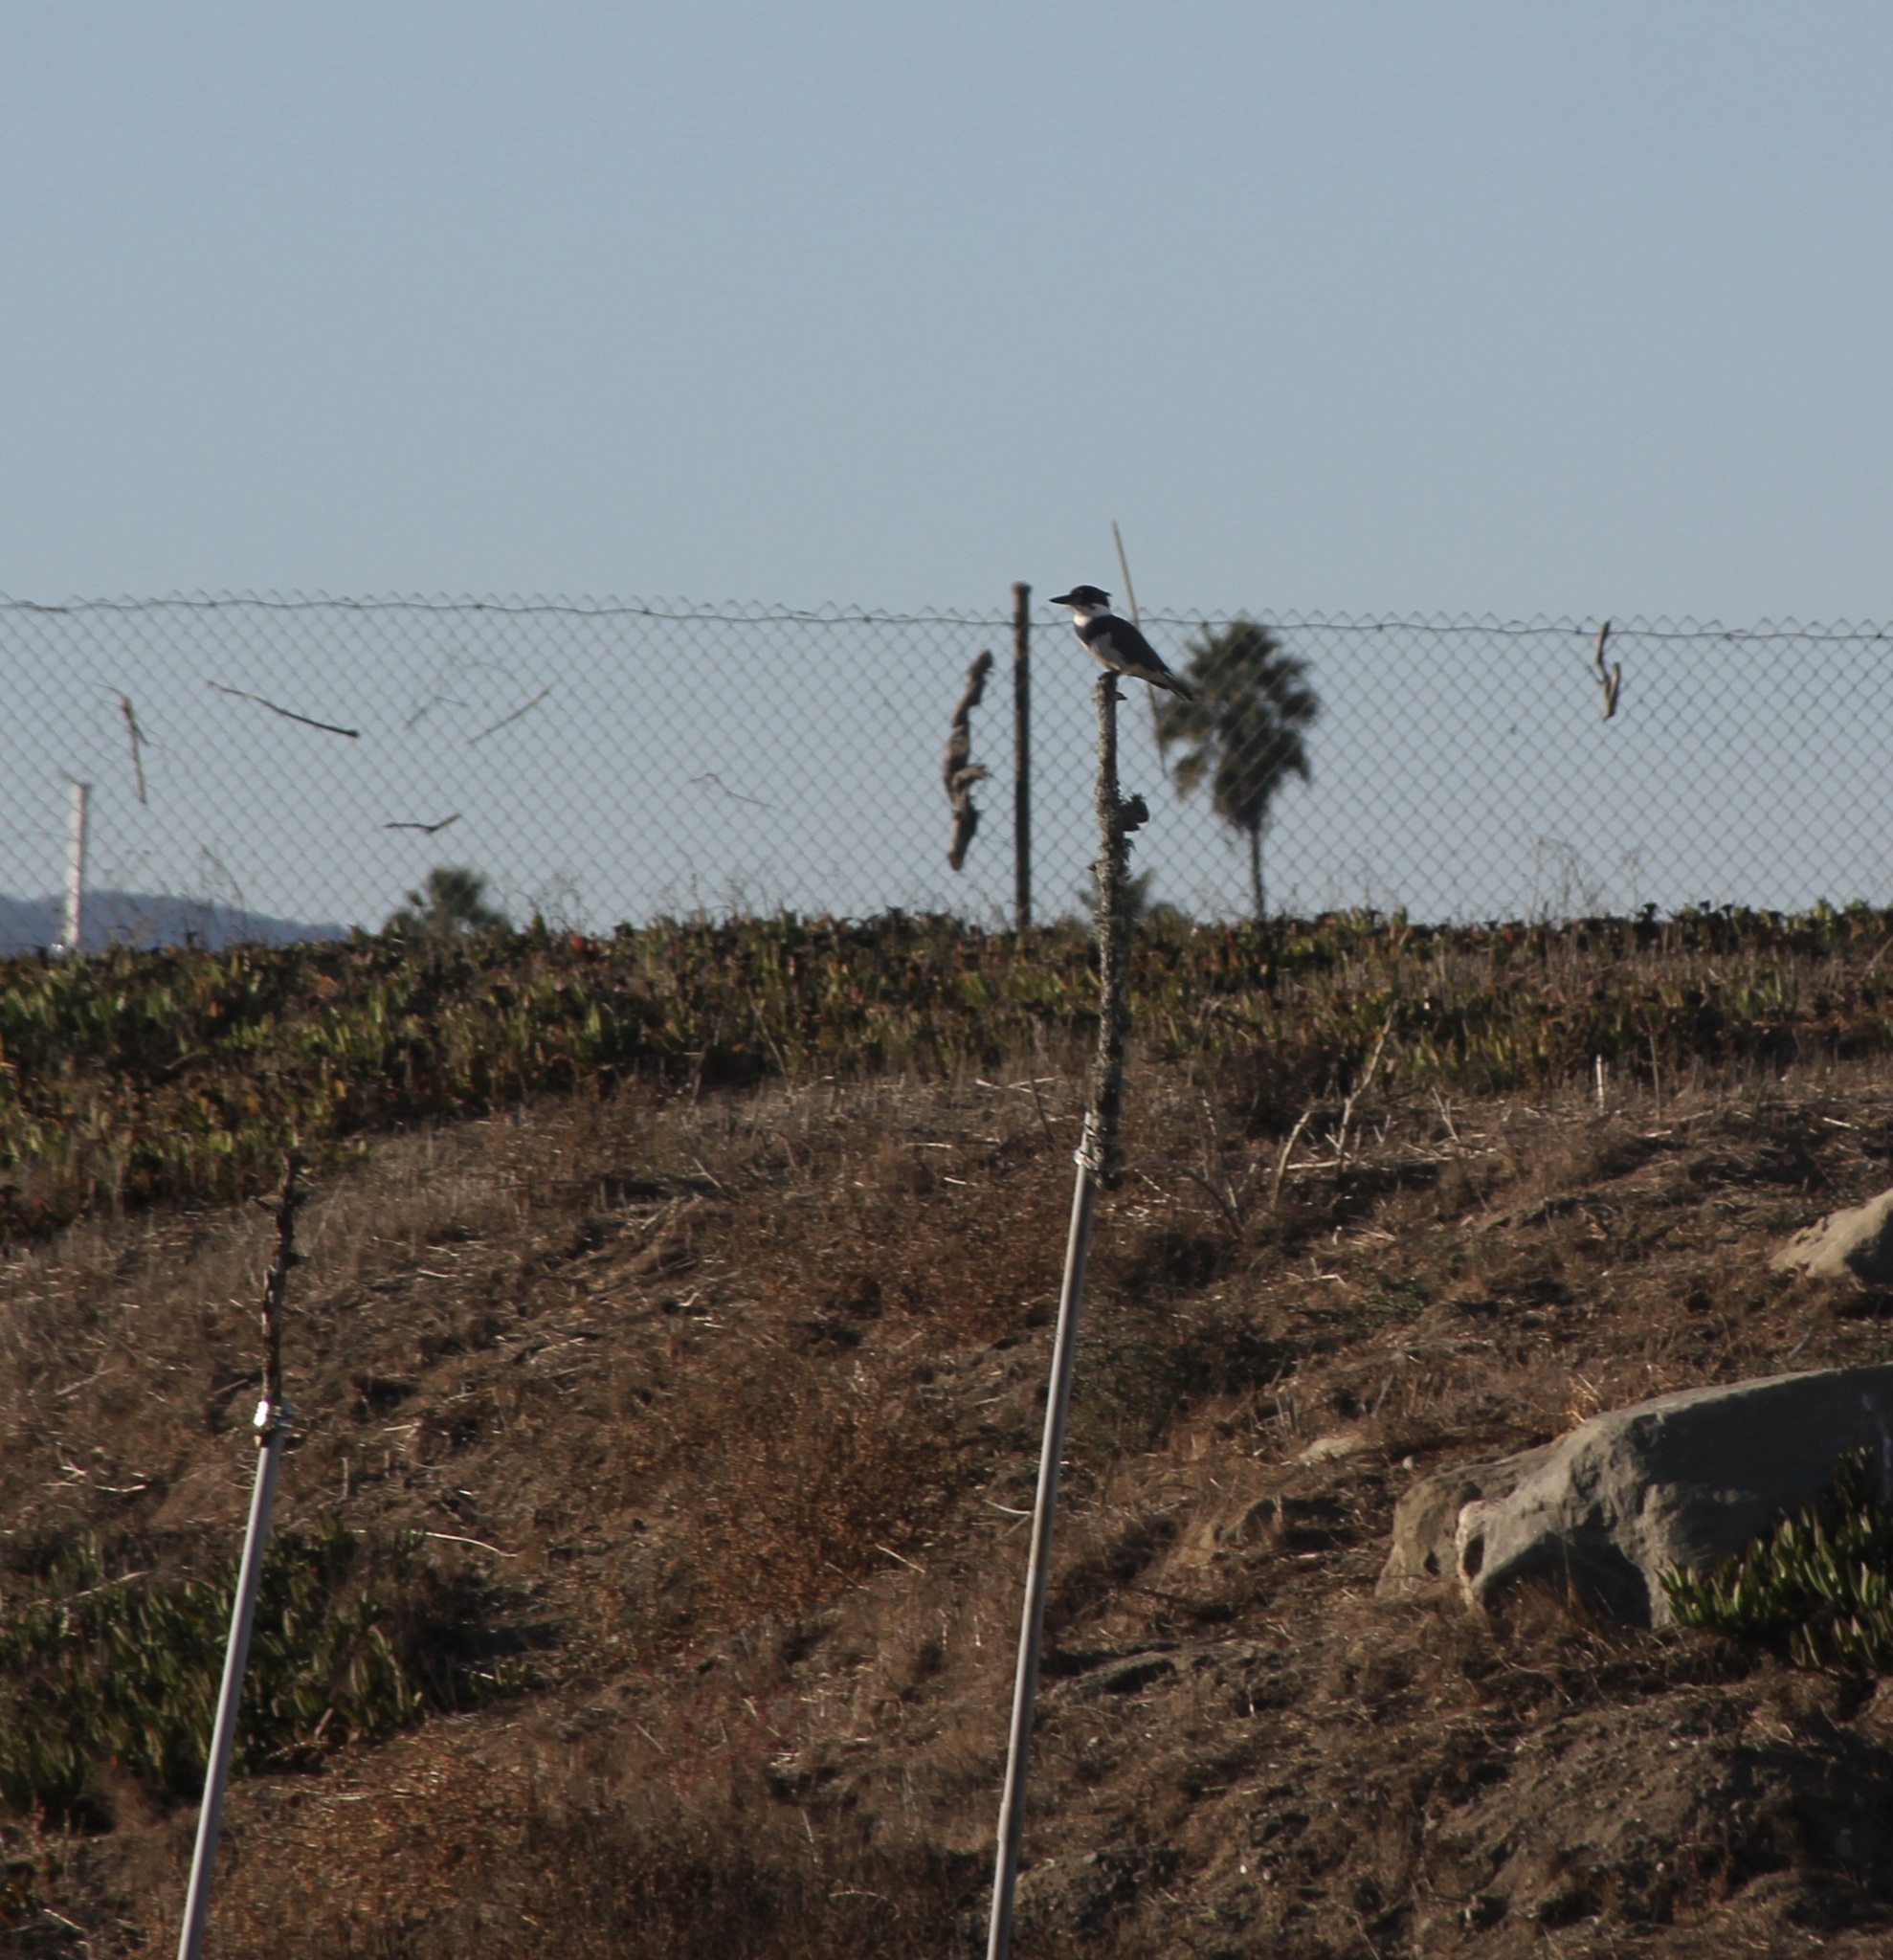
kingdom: Animalia
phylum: Chordata
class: Aves
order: Coraciiformes
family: Alcedinidae
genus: Megaceryle
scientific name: Megaceryle alcyon
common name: Belted kingfisher
